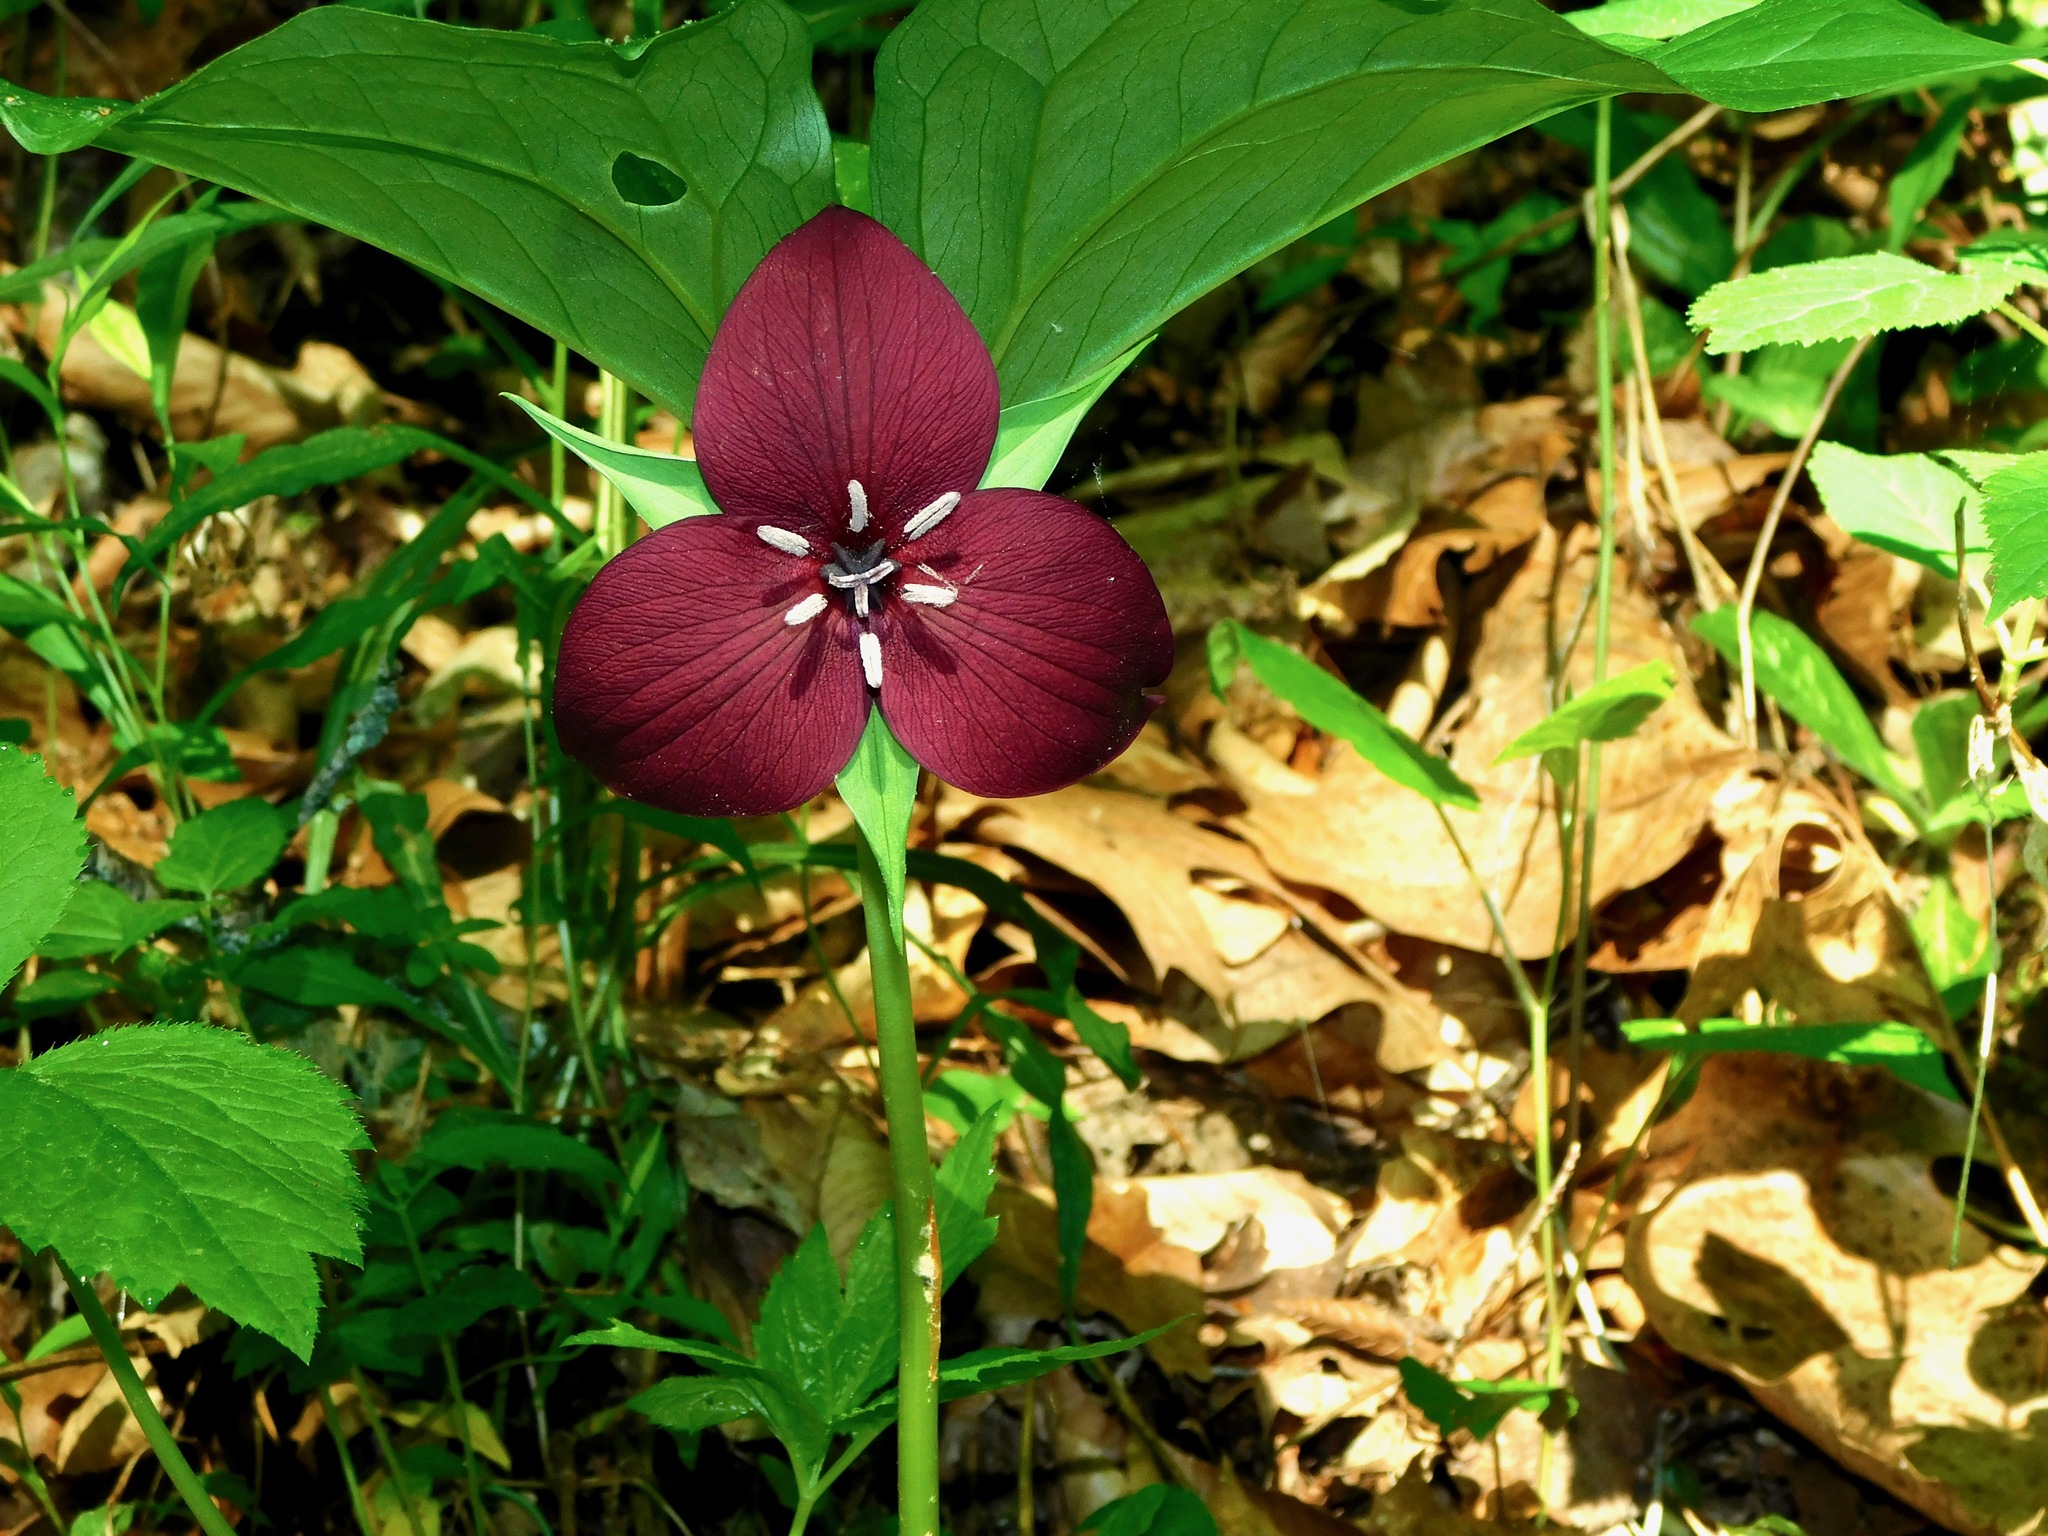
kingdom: Plantae
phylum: Tracheophyta
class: Liliopsida
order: Liliales
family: Melanthiaceae
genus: Trillium
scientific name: Trillium vaseyi
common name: Sweet trillium
